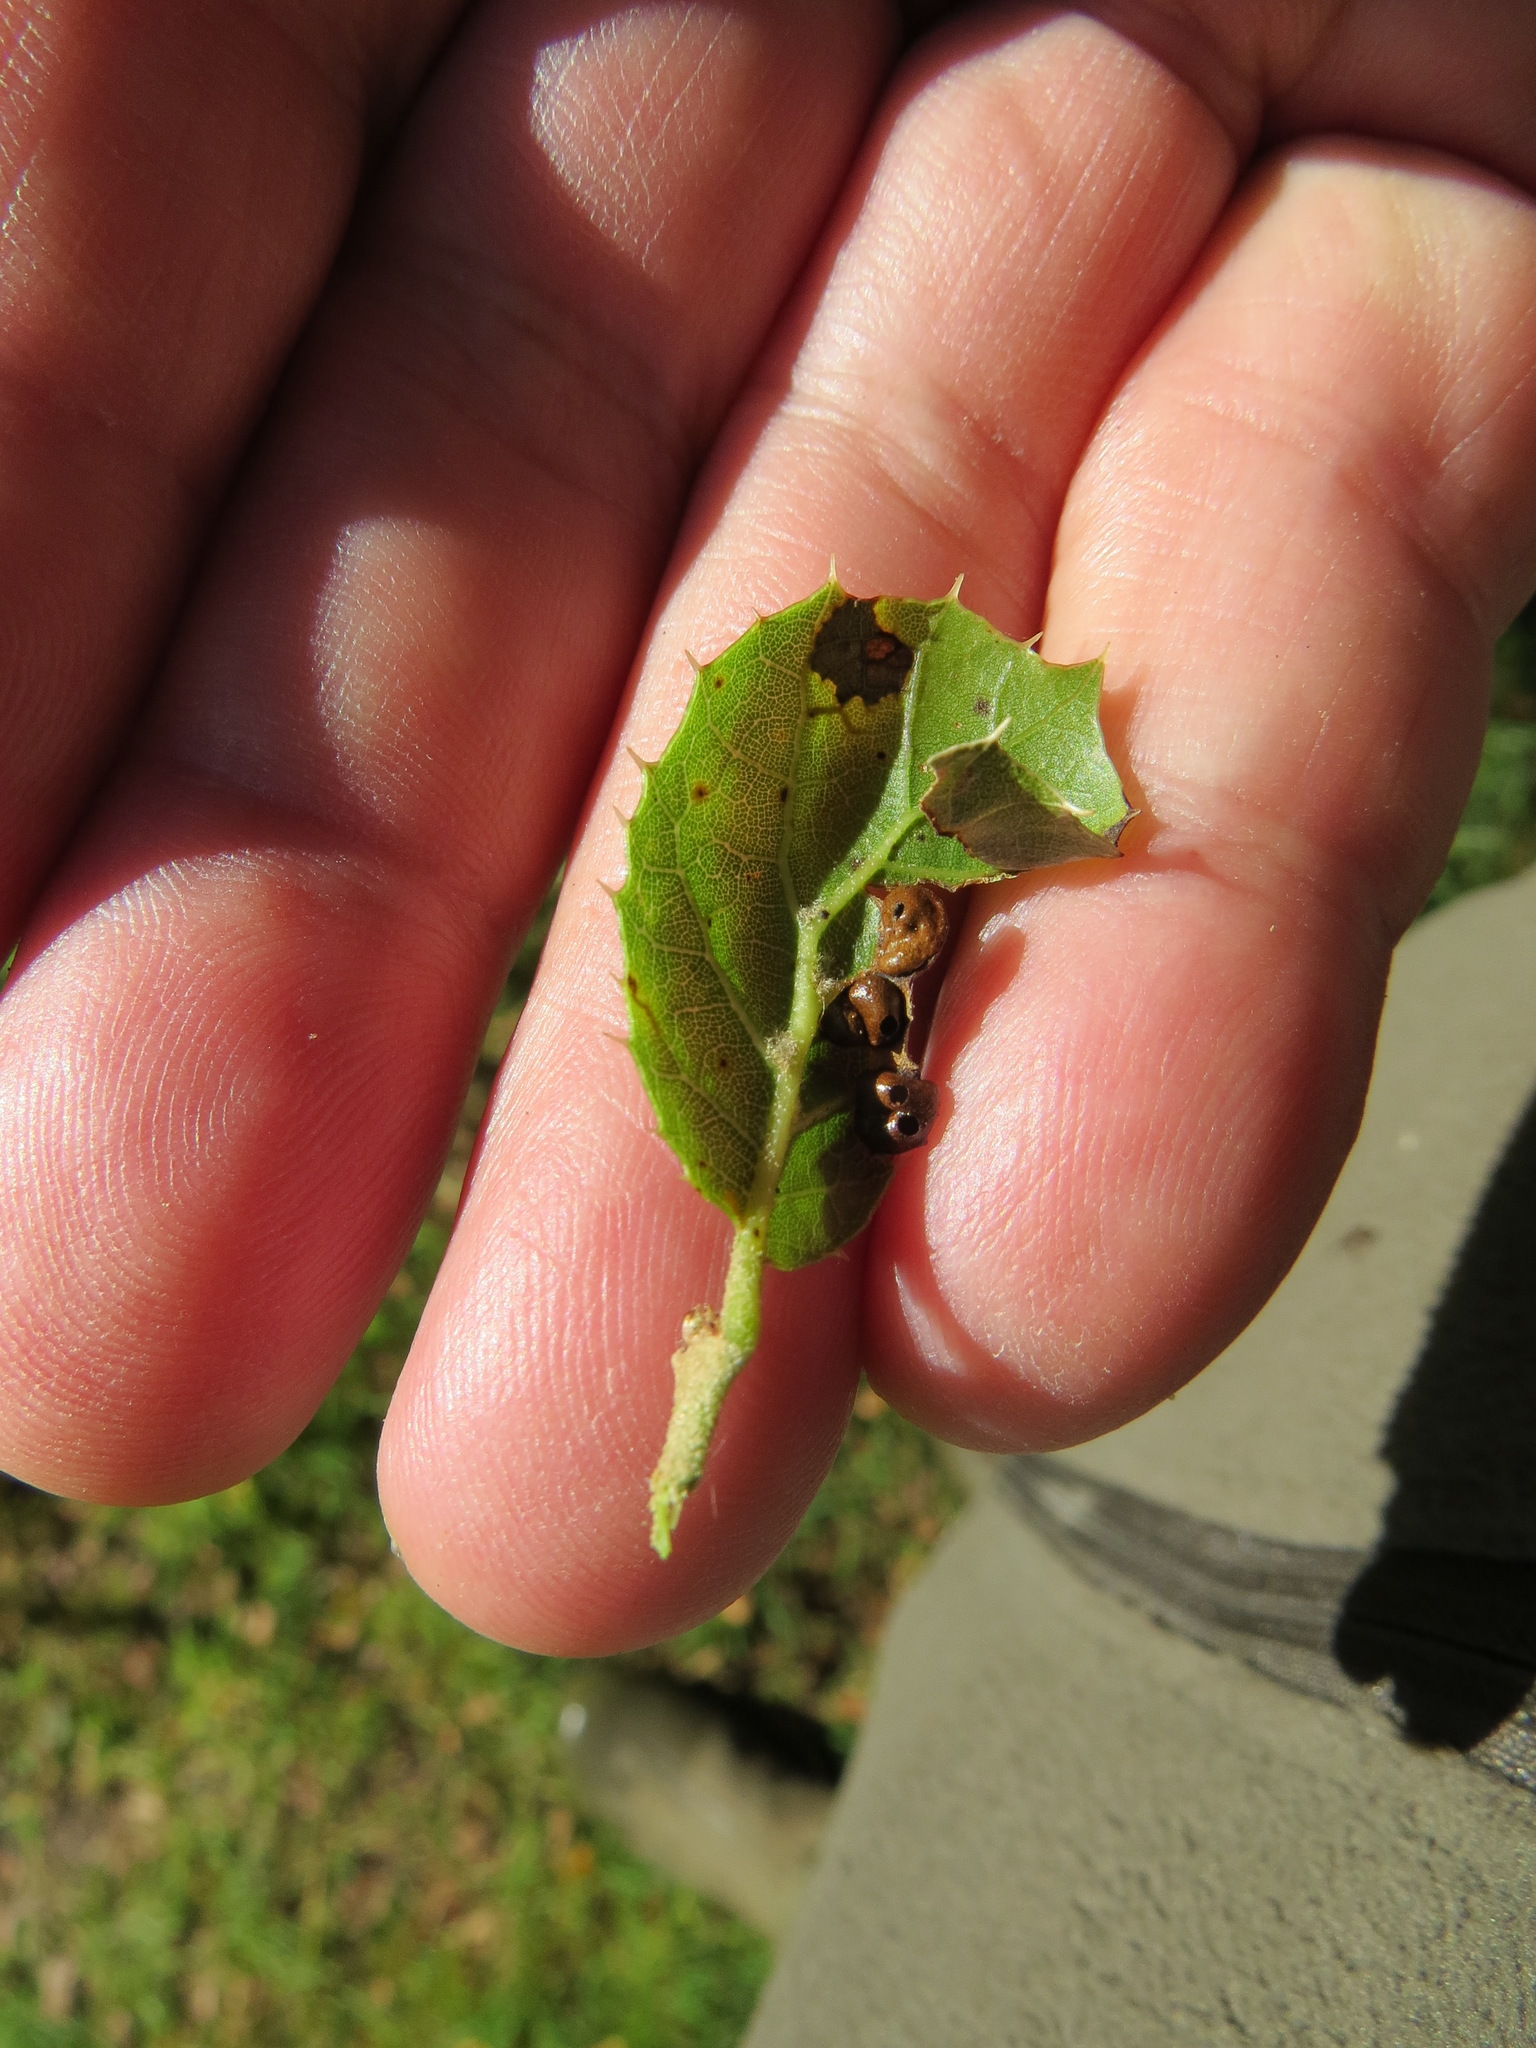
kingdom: Animalia
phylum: Arthropoda
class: Insecta
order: Hymenoptera
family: Cynipidae
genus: Callirhytis
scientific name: Callirhytis
